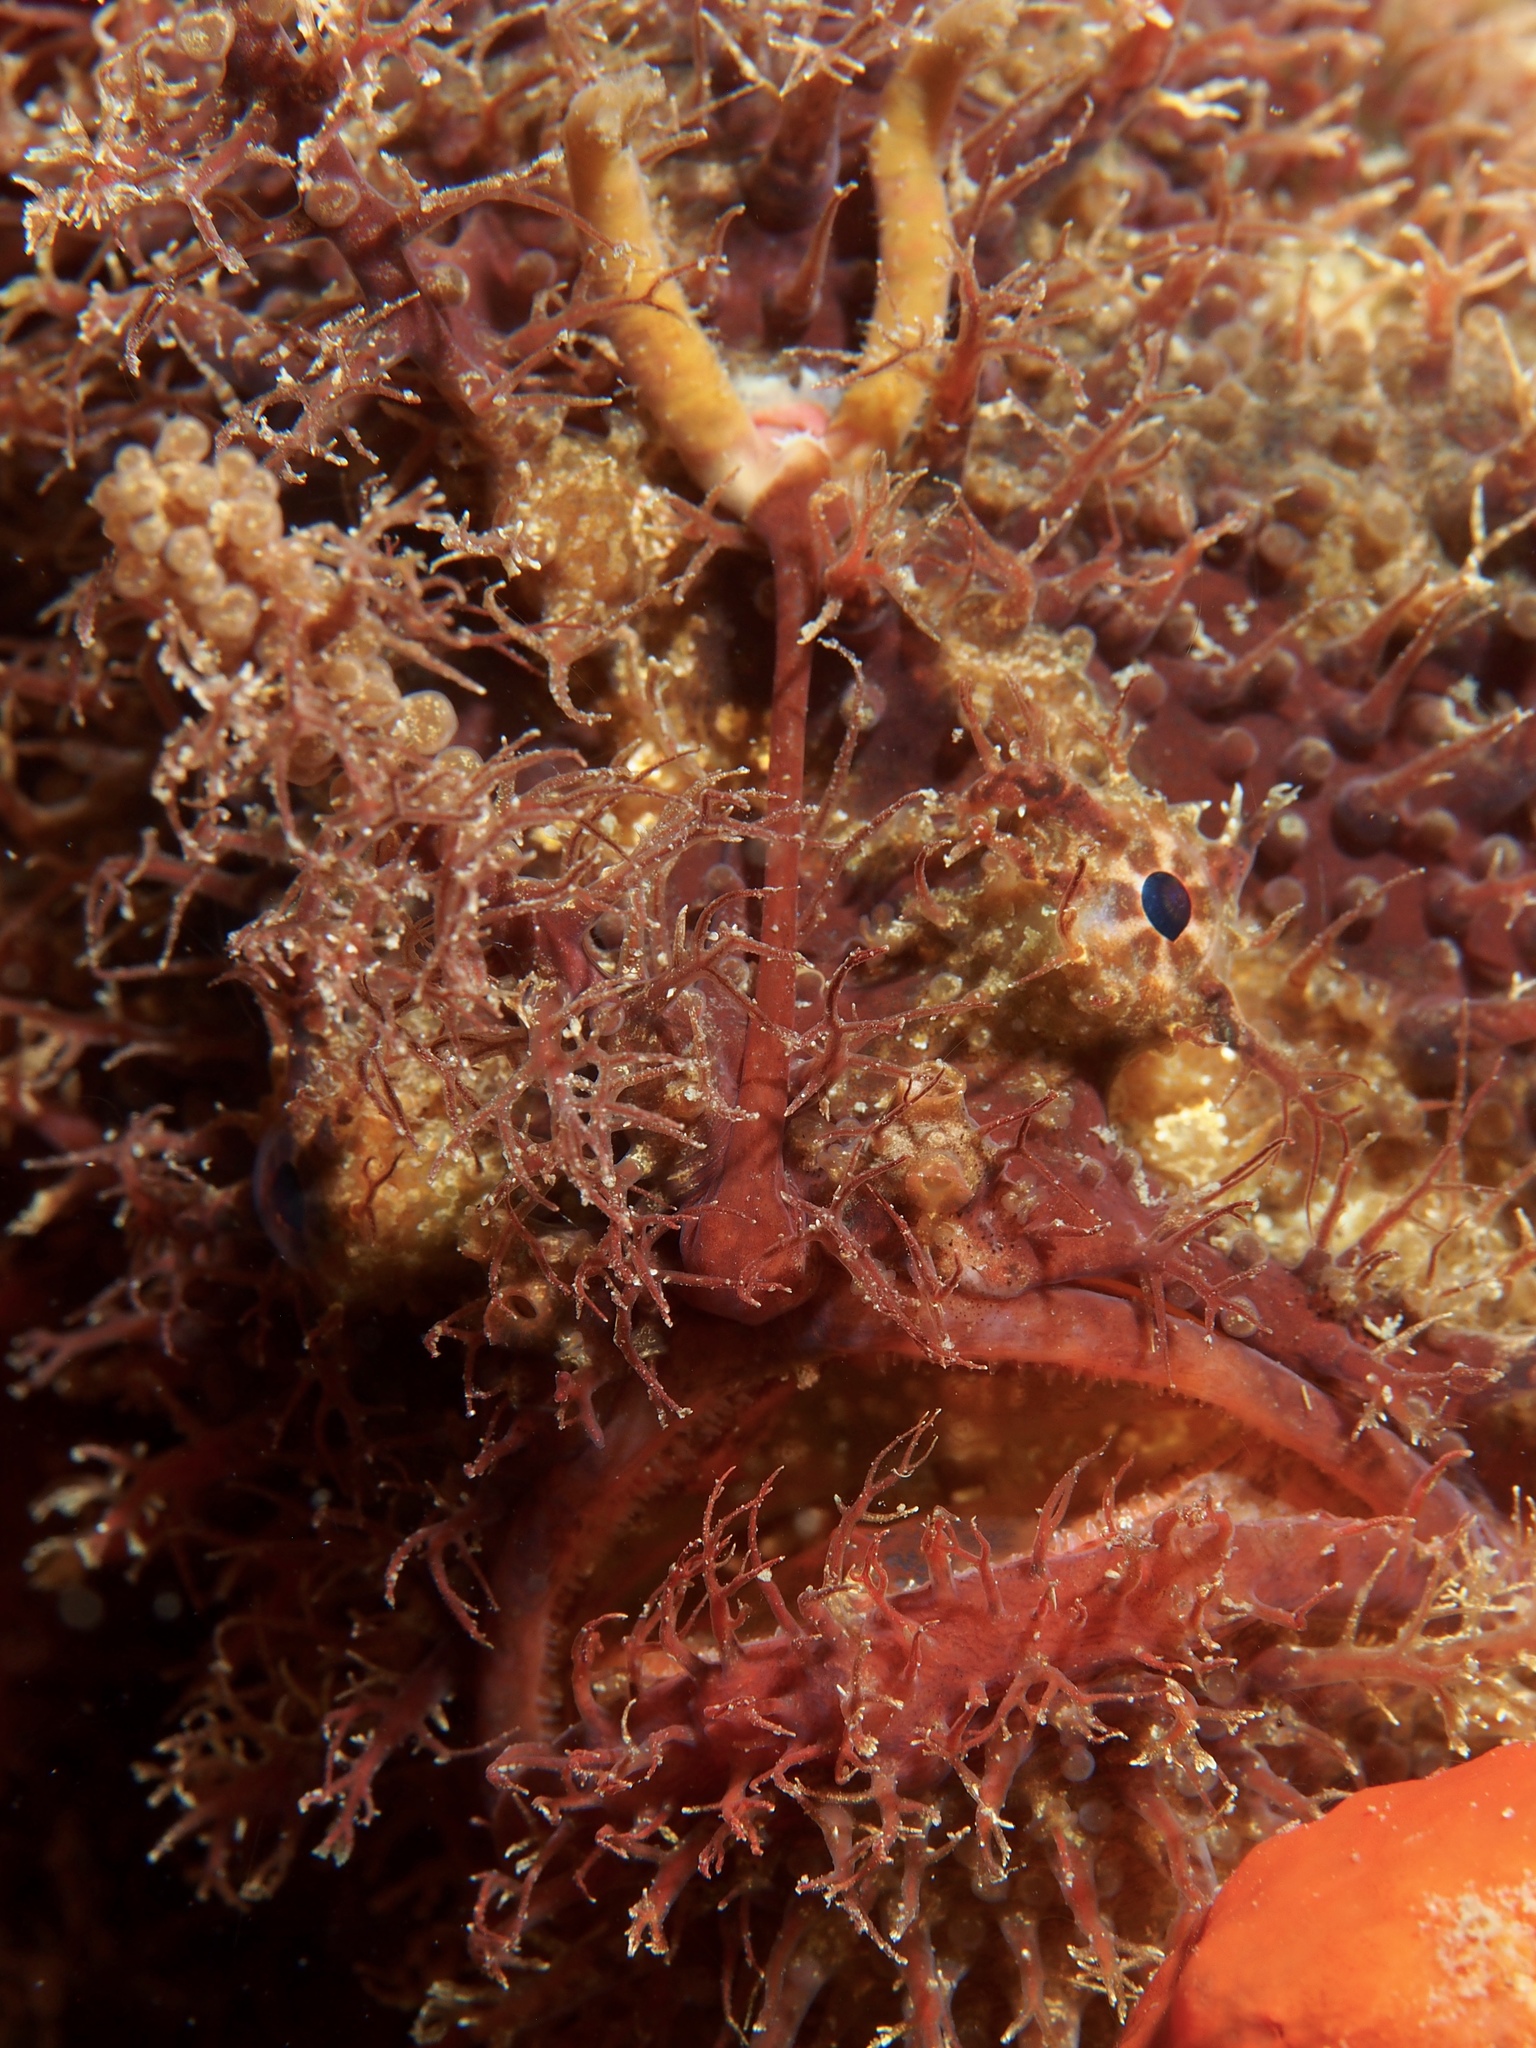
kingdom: Animalia
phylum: Chordata
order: Lophiiformes
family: Antennariidae
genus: Rhycherus
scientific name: Rhycherus filamentosus
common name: Tasselled anglerfish
